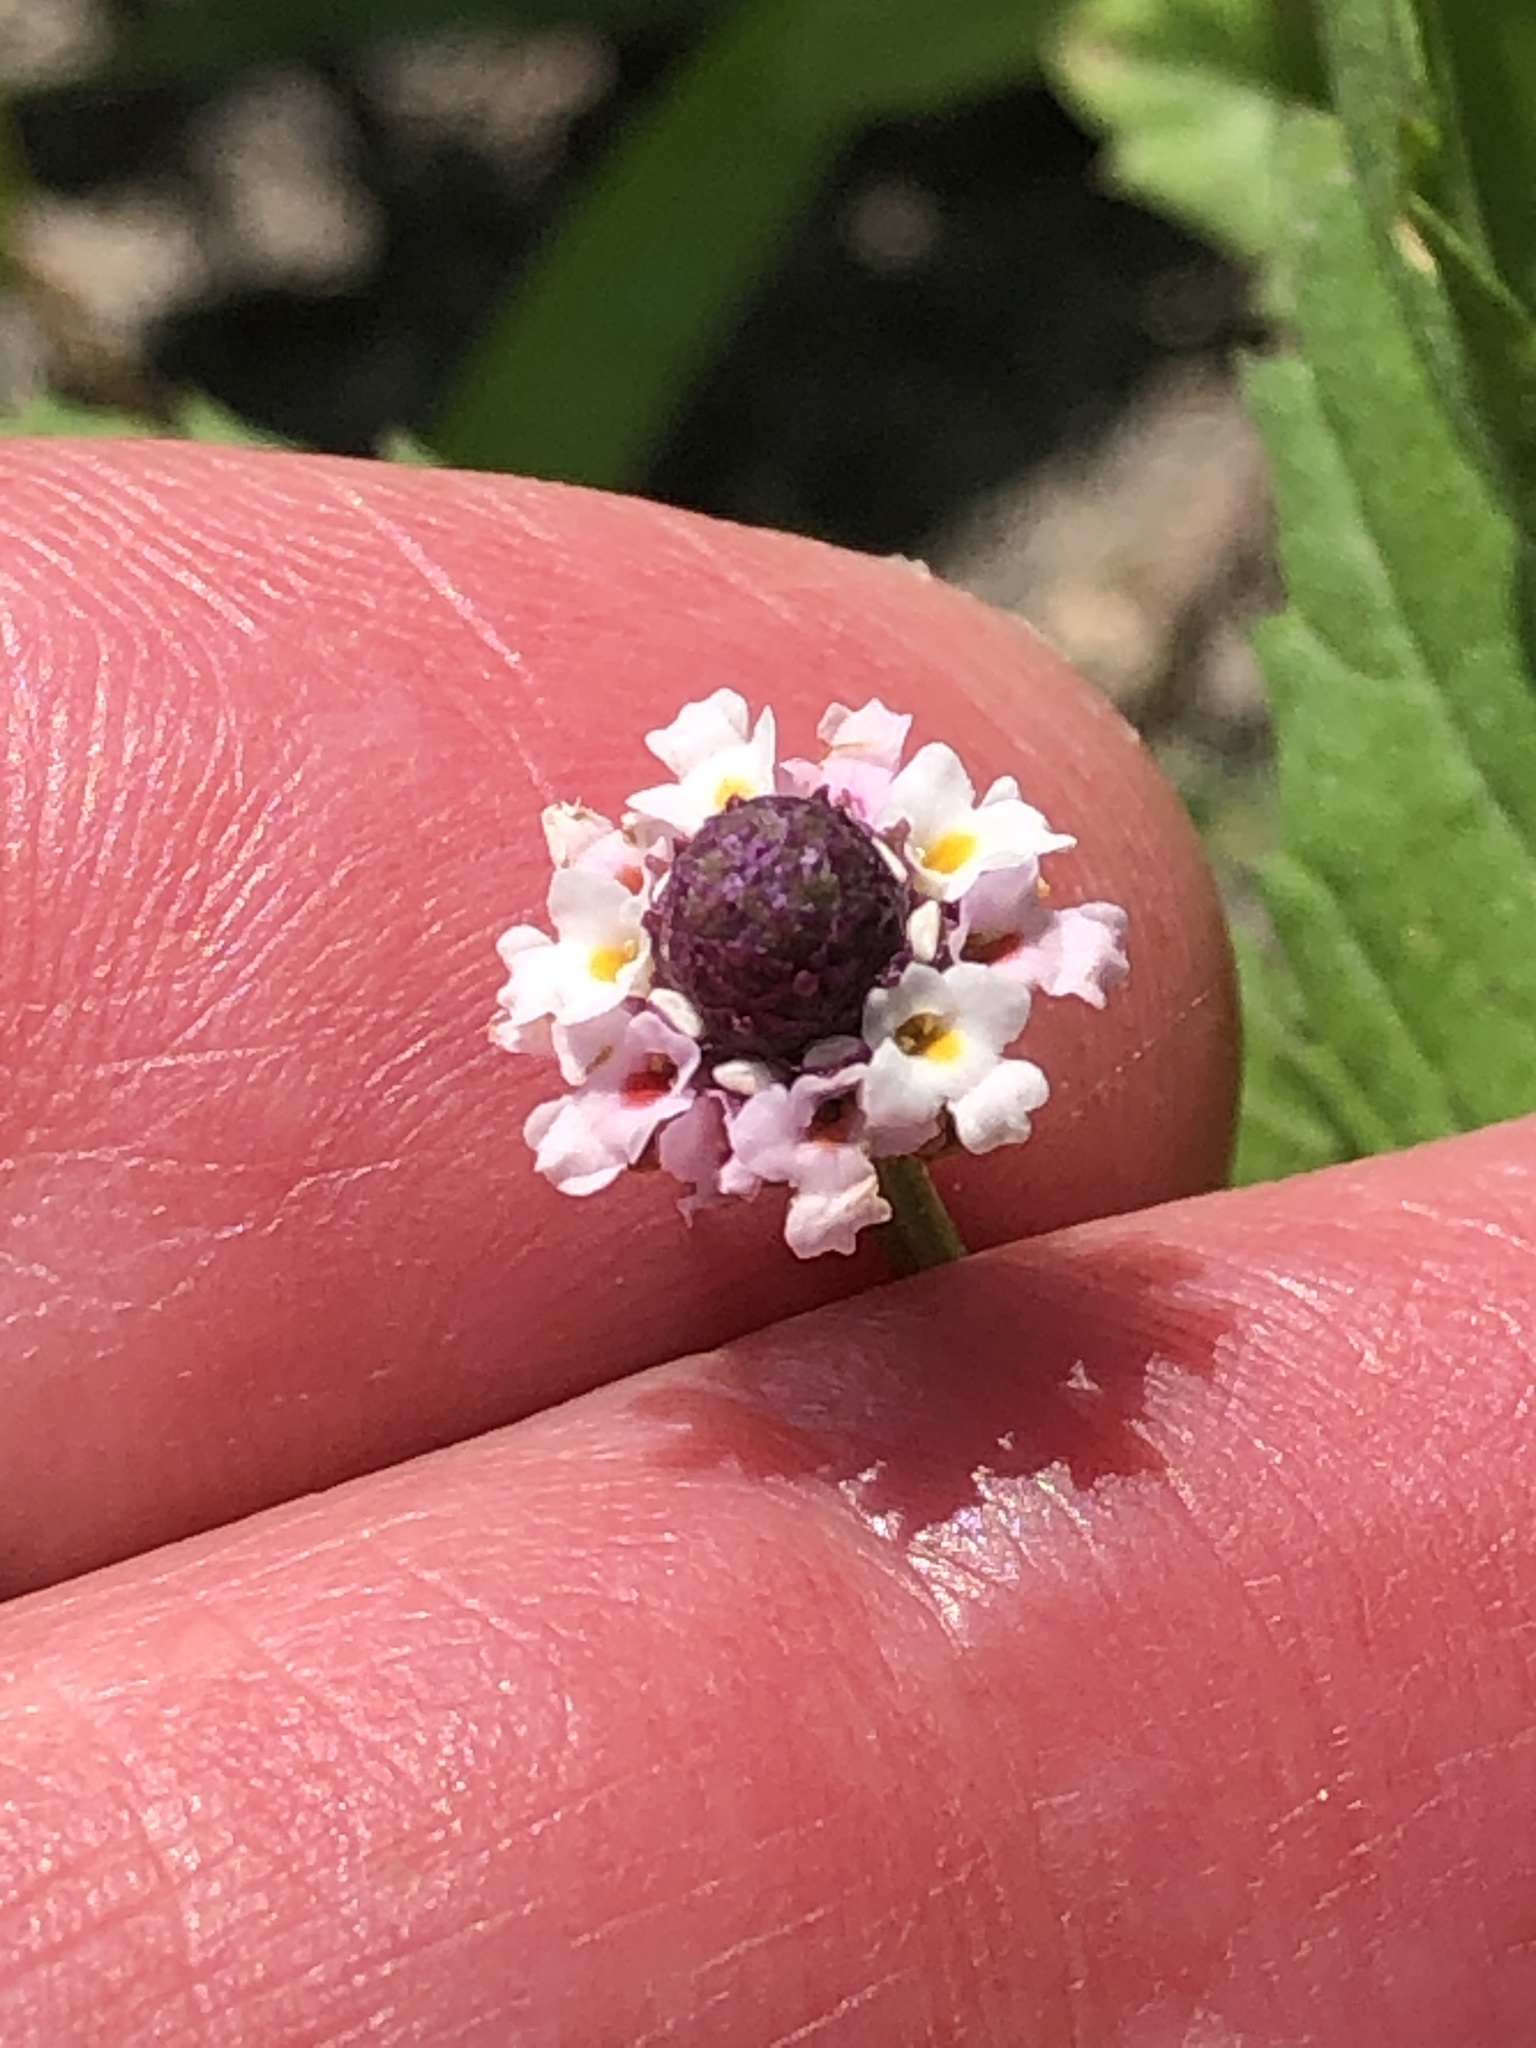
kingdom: Plantae
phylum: Tracheophyta
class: Magnoliopsida
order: Lamiales
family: Verbenaceae
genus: Phyla
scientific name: Phyla lanceolata
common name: Northern fogfruit
